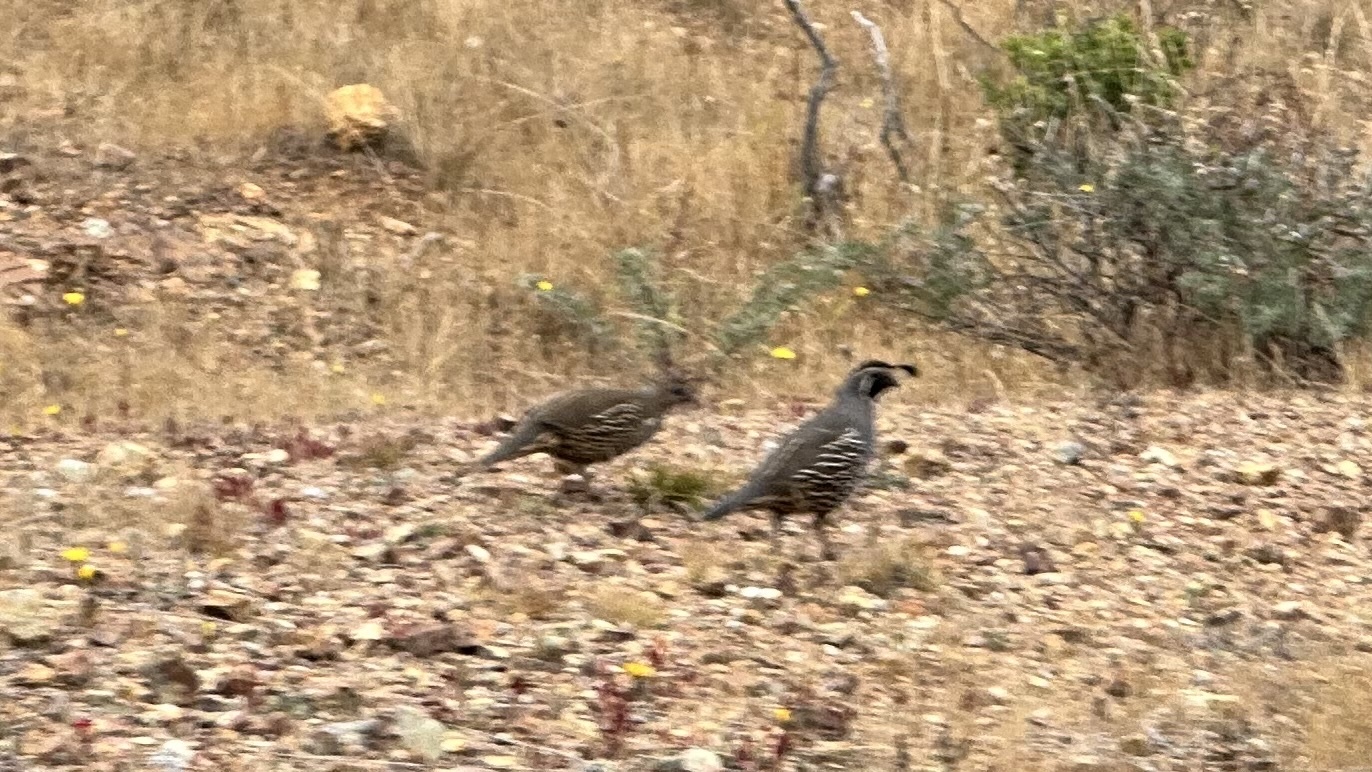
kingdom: Animalia
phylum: Chordata
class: Aves
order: Galliformes
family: Odontophoridae
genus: Callipepla
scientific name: Callipepla californica
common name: California quail
